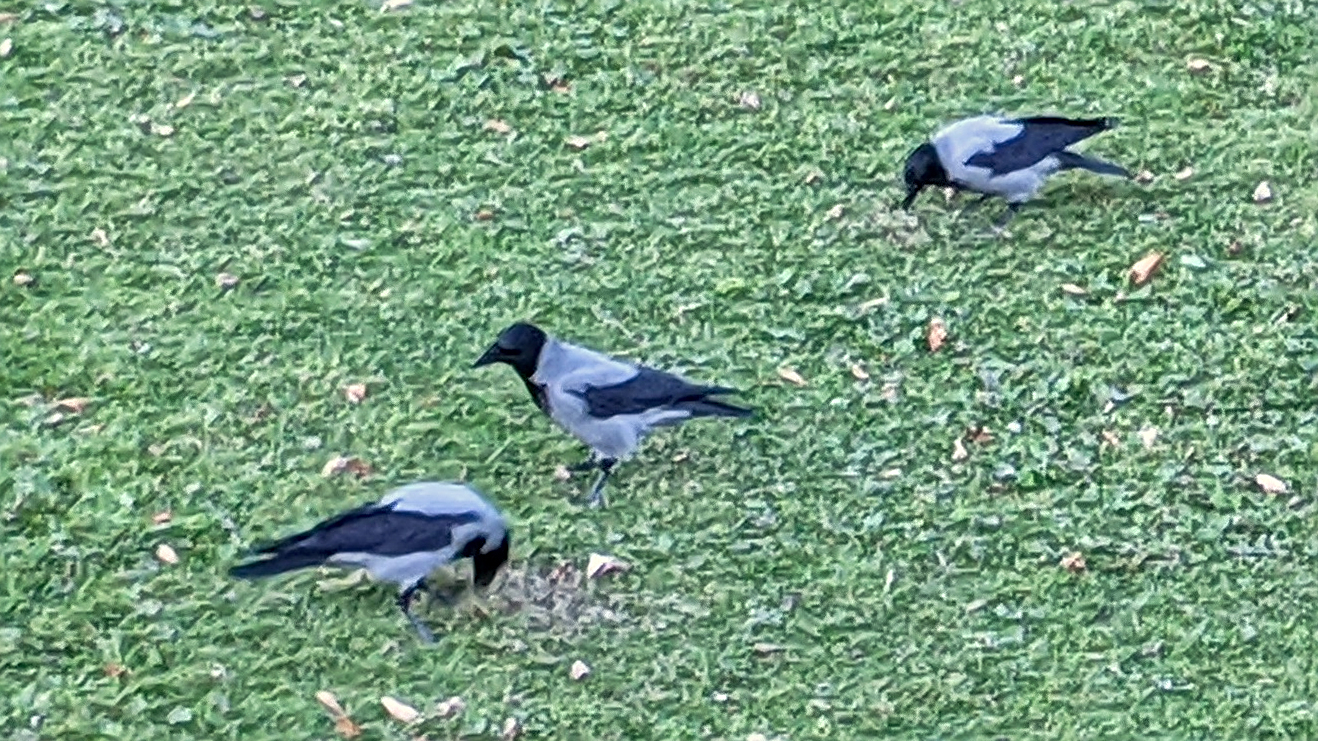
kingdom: Animalia
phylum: Chordata
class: Aves
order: Passeriformes
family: Corvidae
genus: Corvus
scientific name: Corvus cornix
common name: Hooded crow
